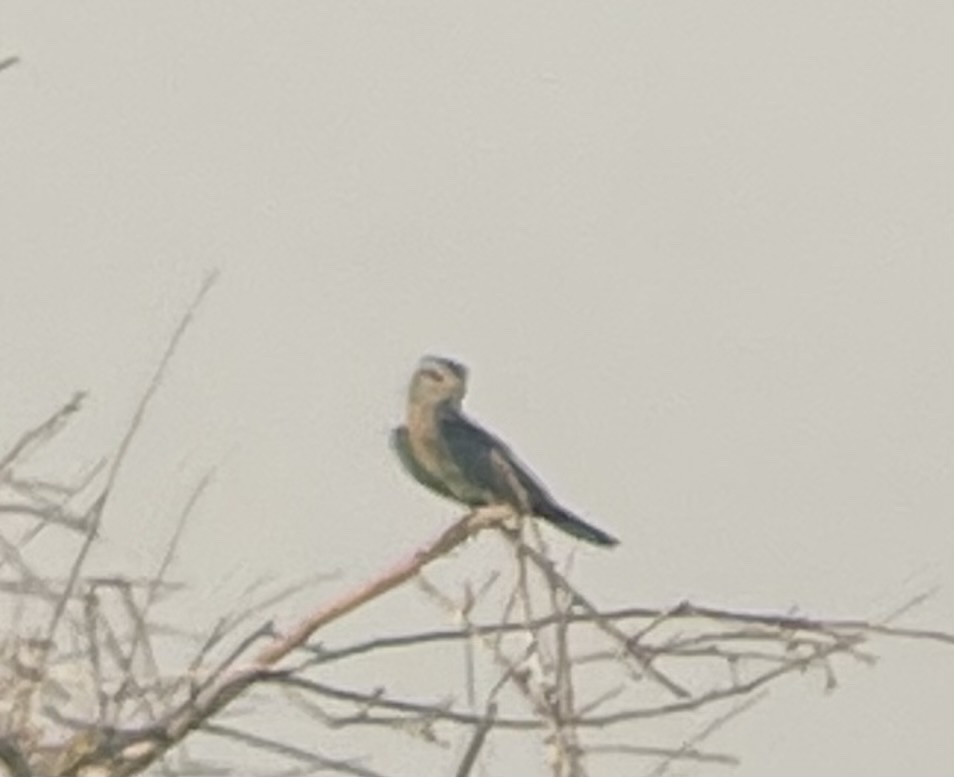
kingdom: Animalia
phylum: Chordata
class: Aves
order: Coraciiformes
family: Coraciidae
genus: Coracias
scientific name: Coracias garrulus
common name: European roller
